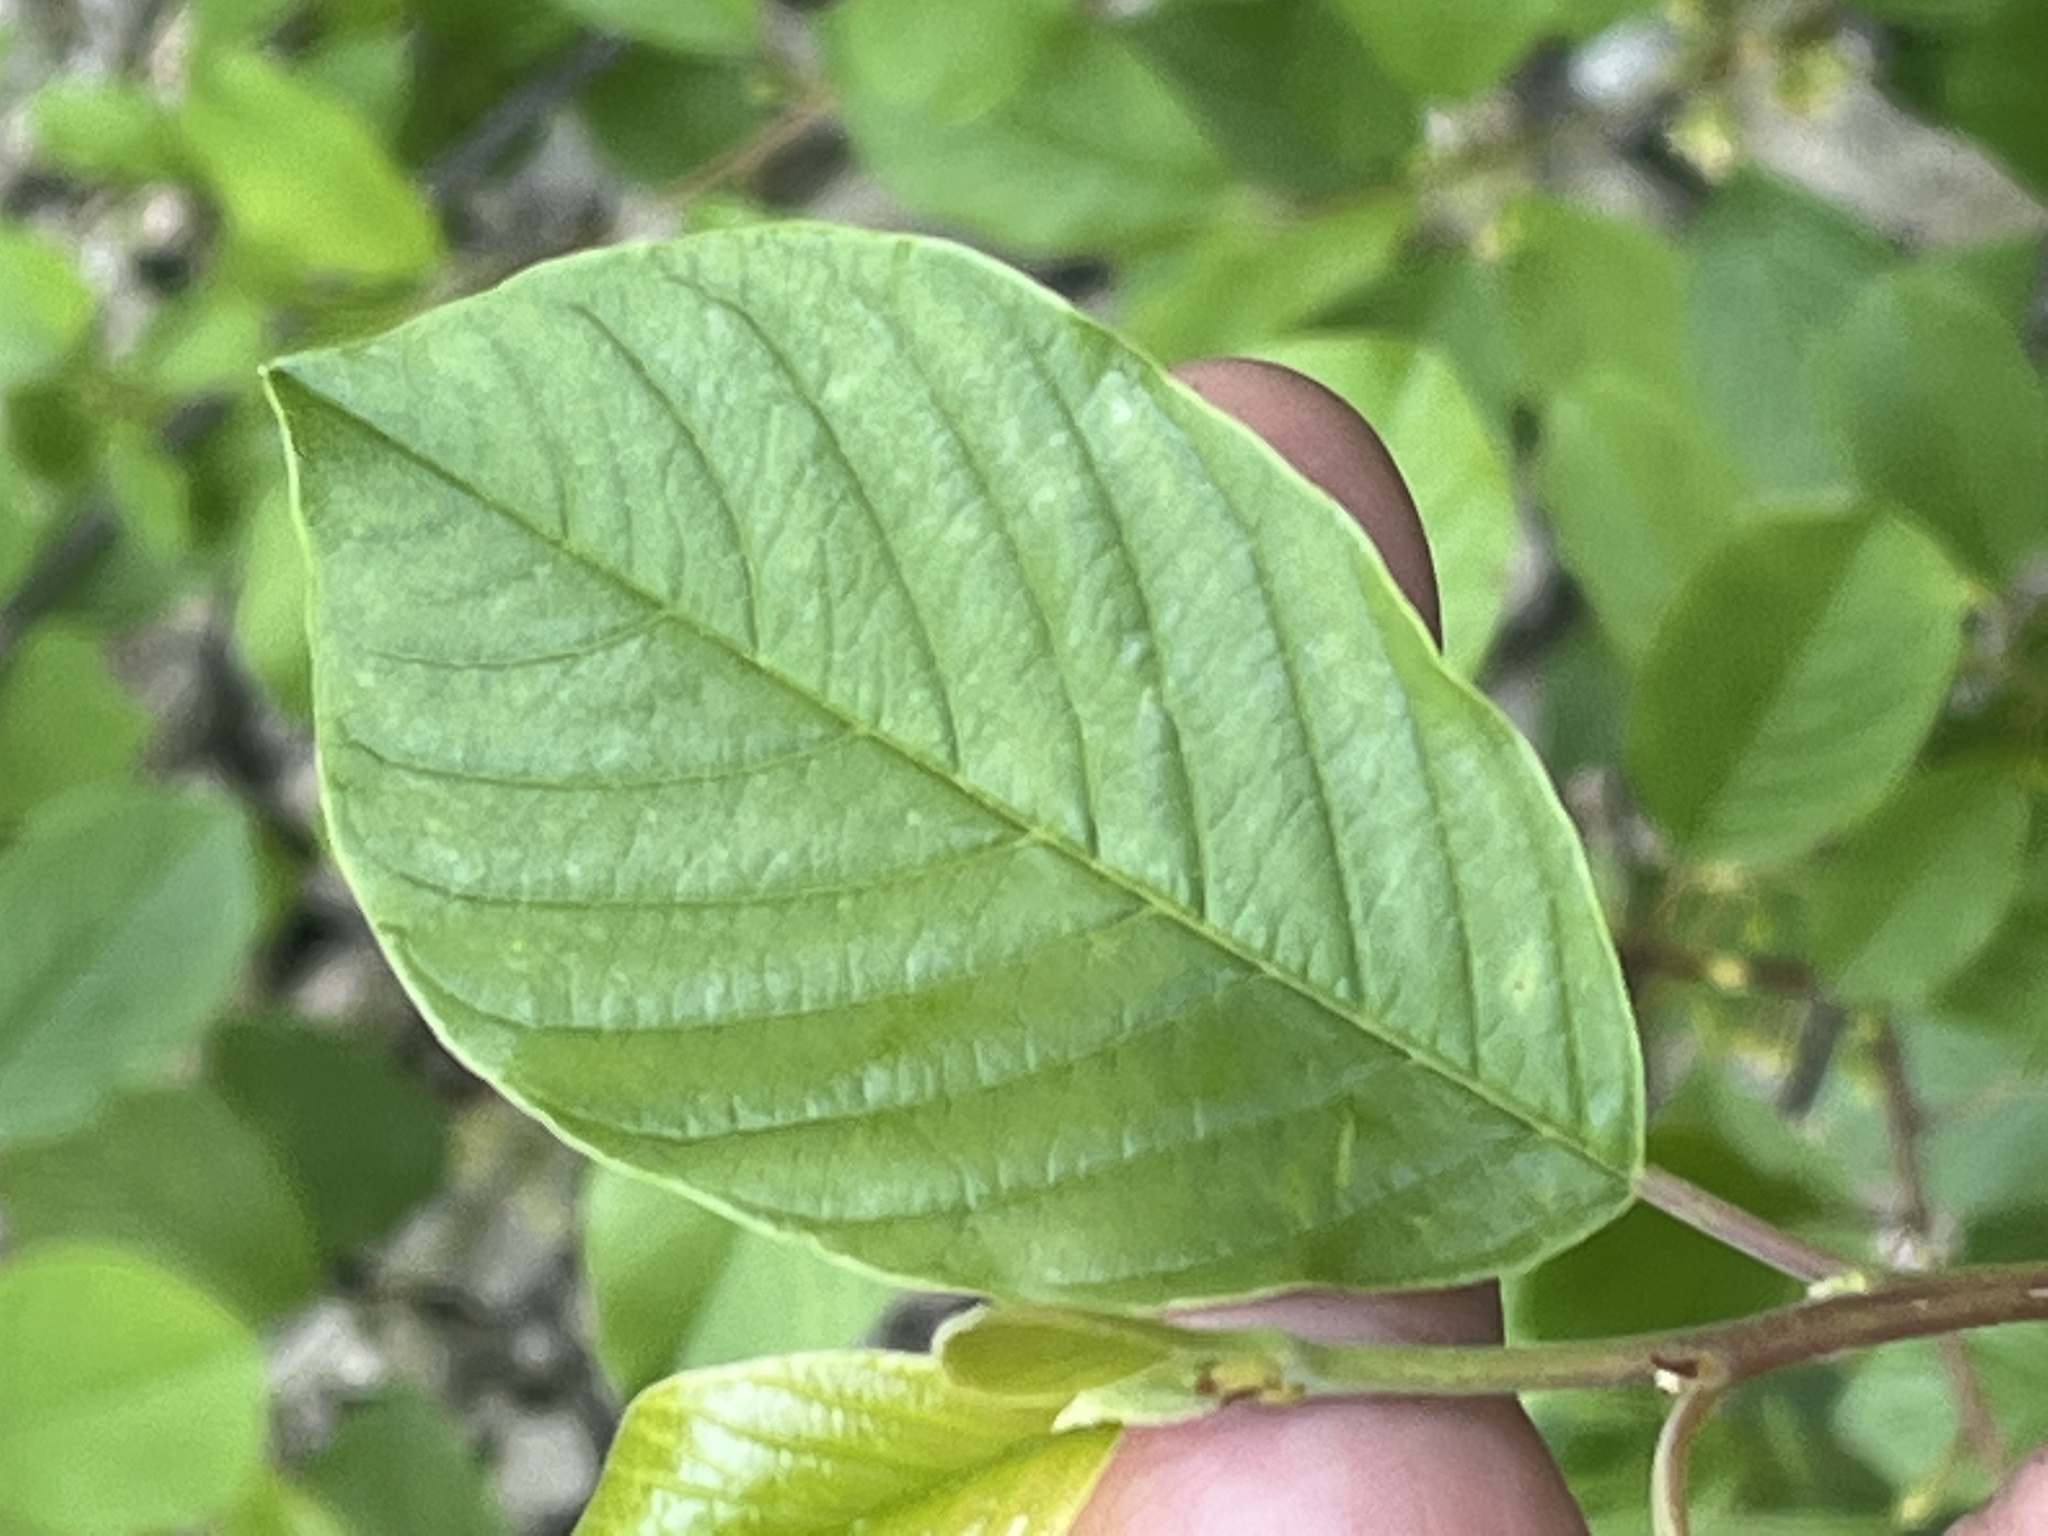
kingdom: Plantae
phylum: Tracheophyta
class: Magnoliopsida
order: Rosales
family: Rhamnaceae
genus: Frangula
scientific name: Frangula alnus
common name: Alder buckthorn
